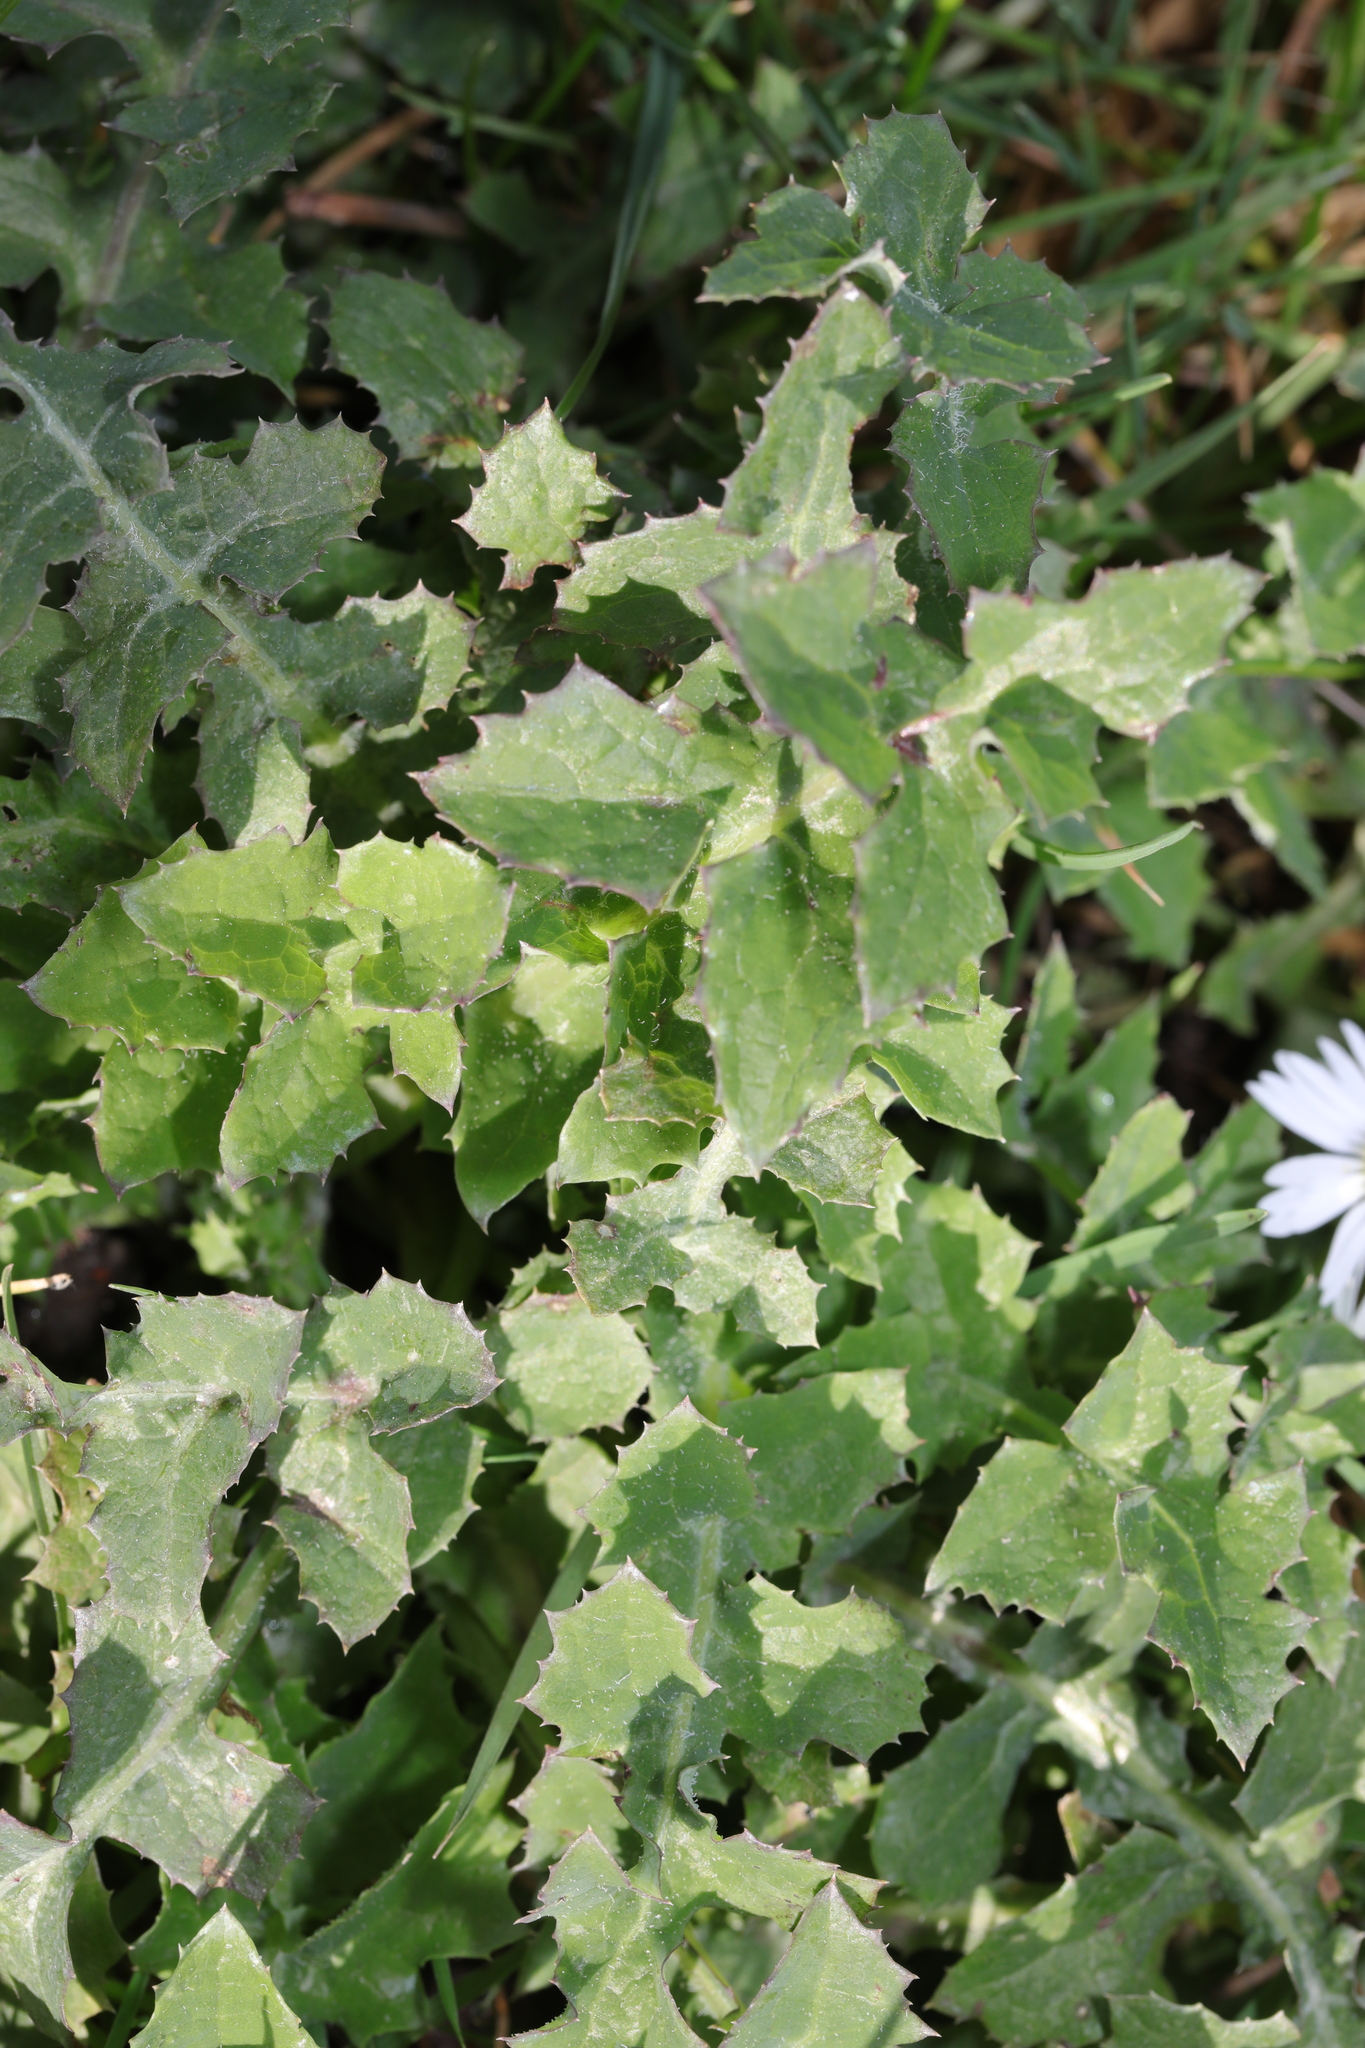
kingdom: Plantae
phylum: Tracheophyta
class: Magnoliopsida
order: Asterales
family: Asteraceae
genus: Sonchus
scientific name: Sonchus oleraceus
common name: Common sowthistle
